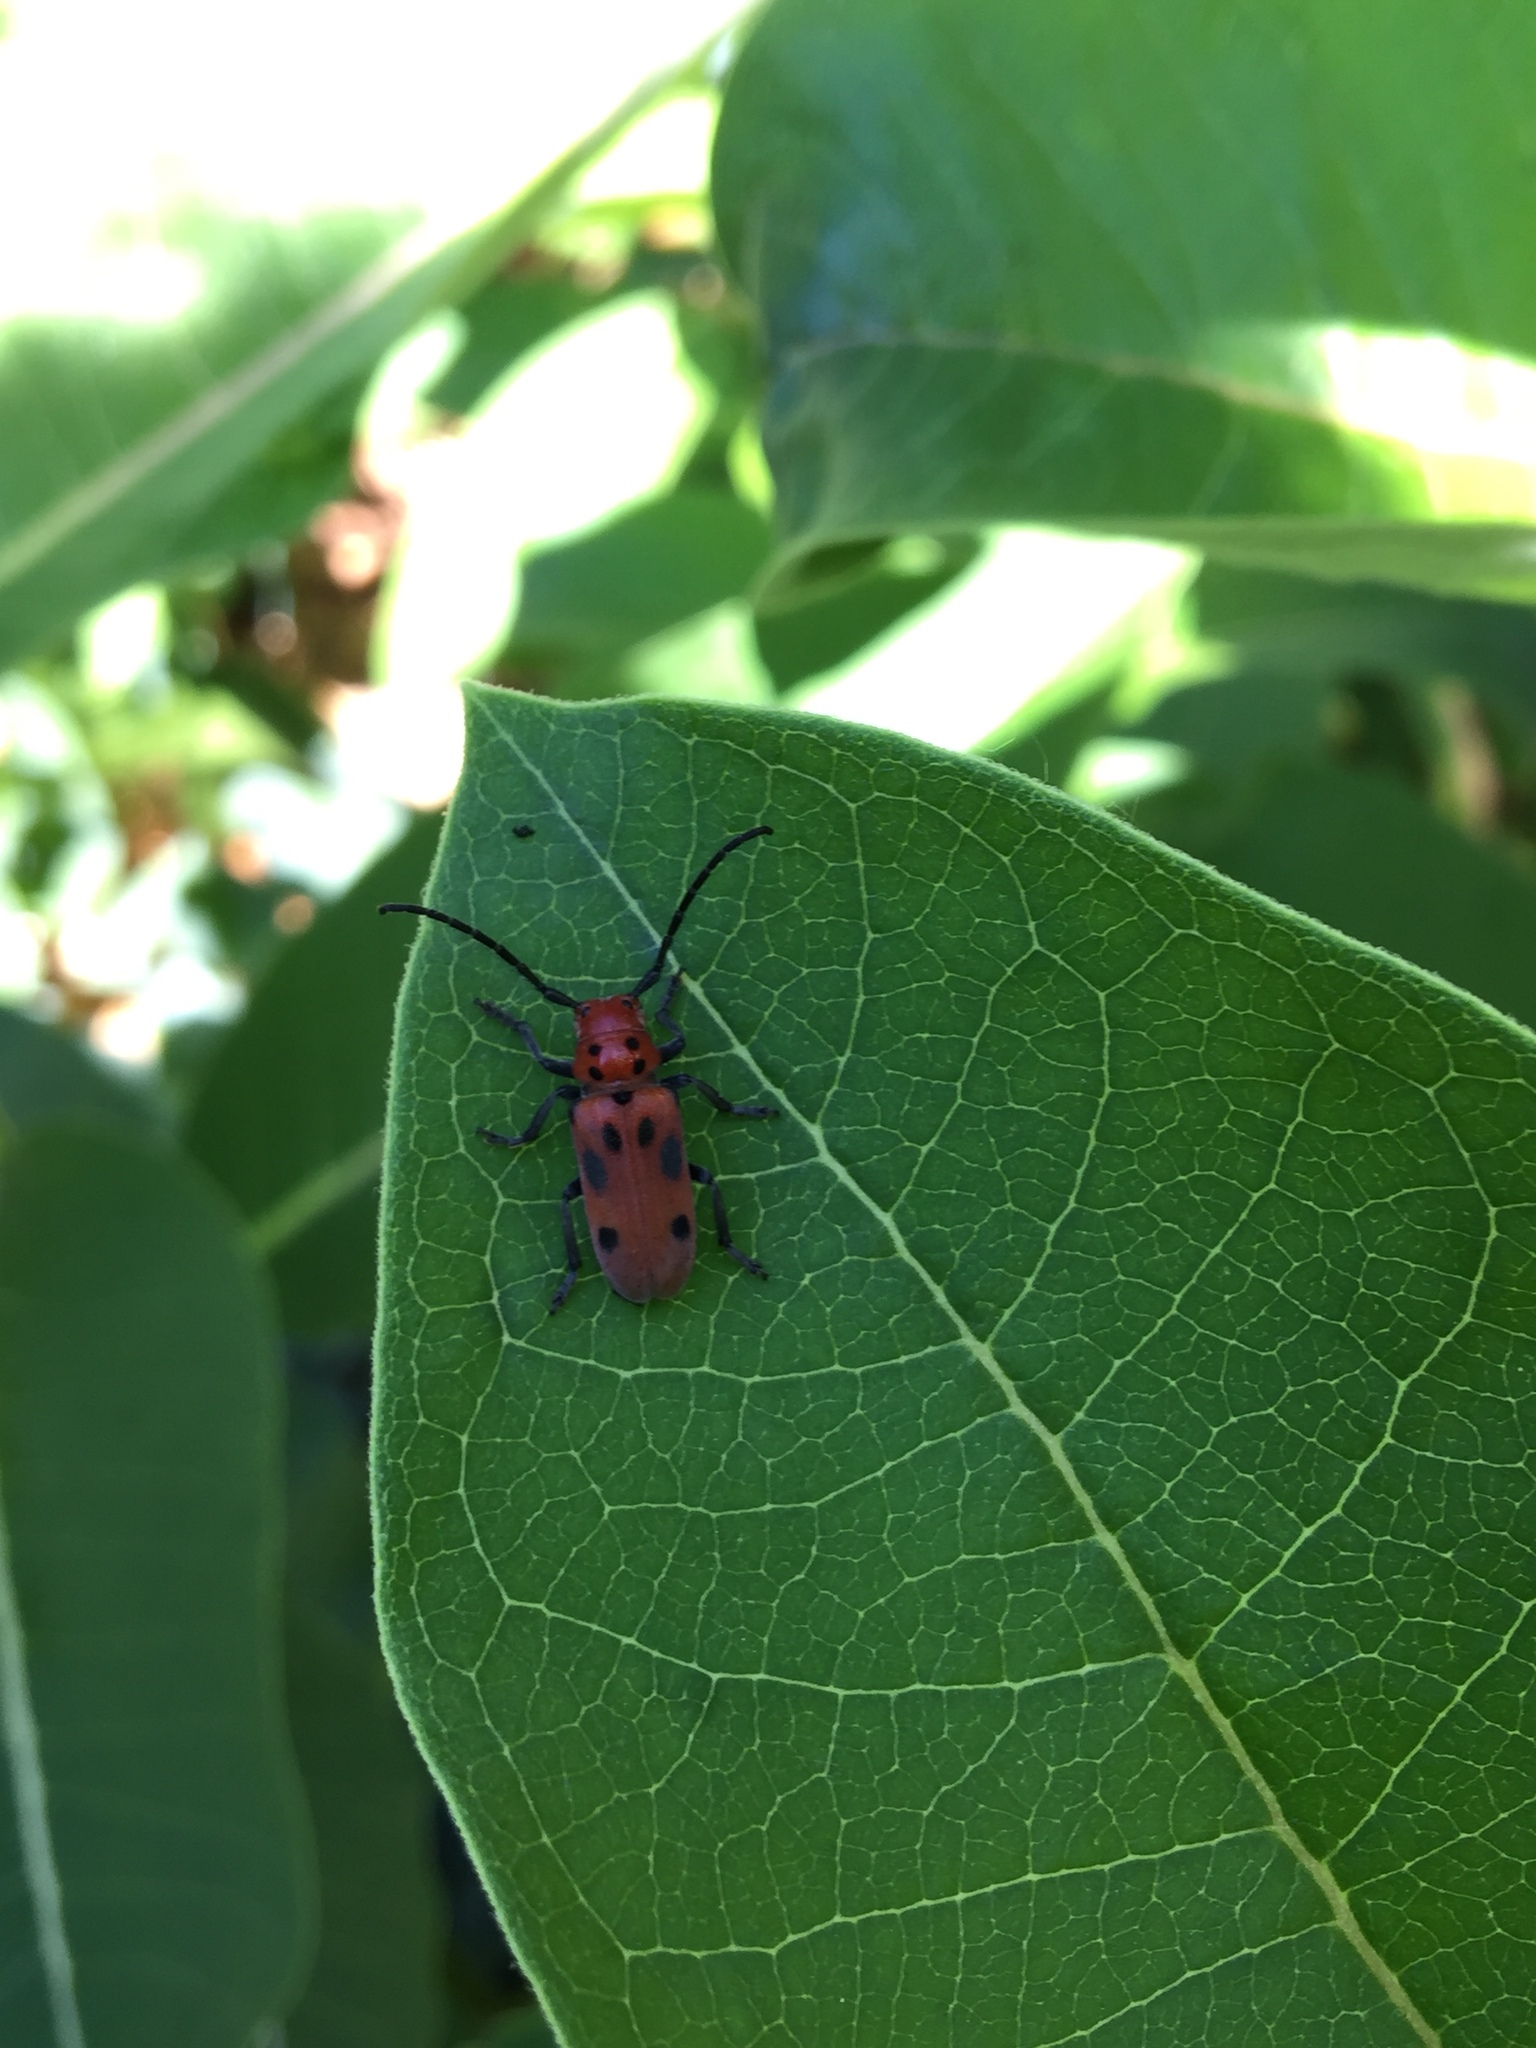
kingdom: Animalia
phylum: Arthropoda
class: Insecta
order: Coleoptera
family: Cerambycidae
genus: Tetraopes
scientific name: Tetraopes tetrophthalmus
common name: Red milkweed beetle
